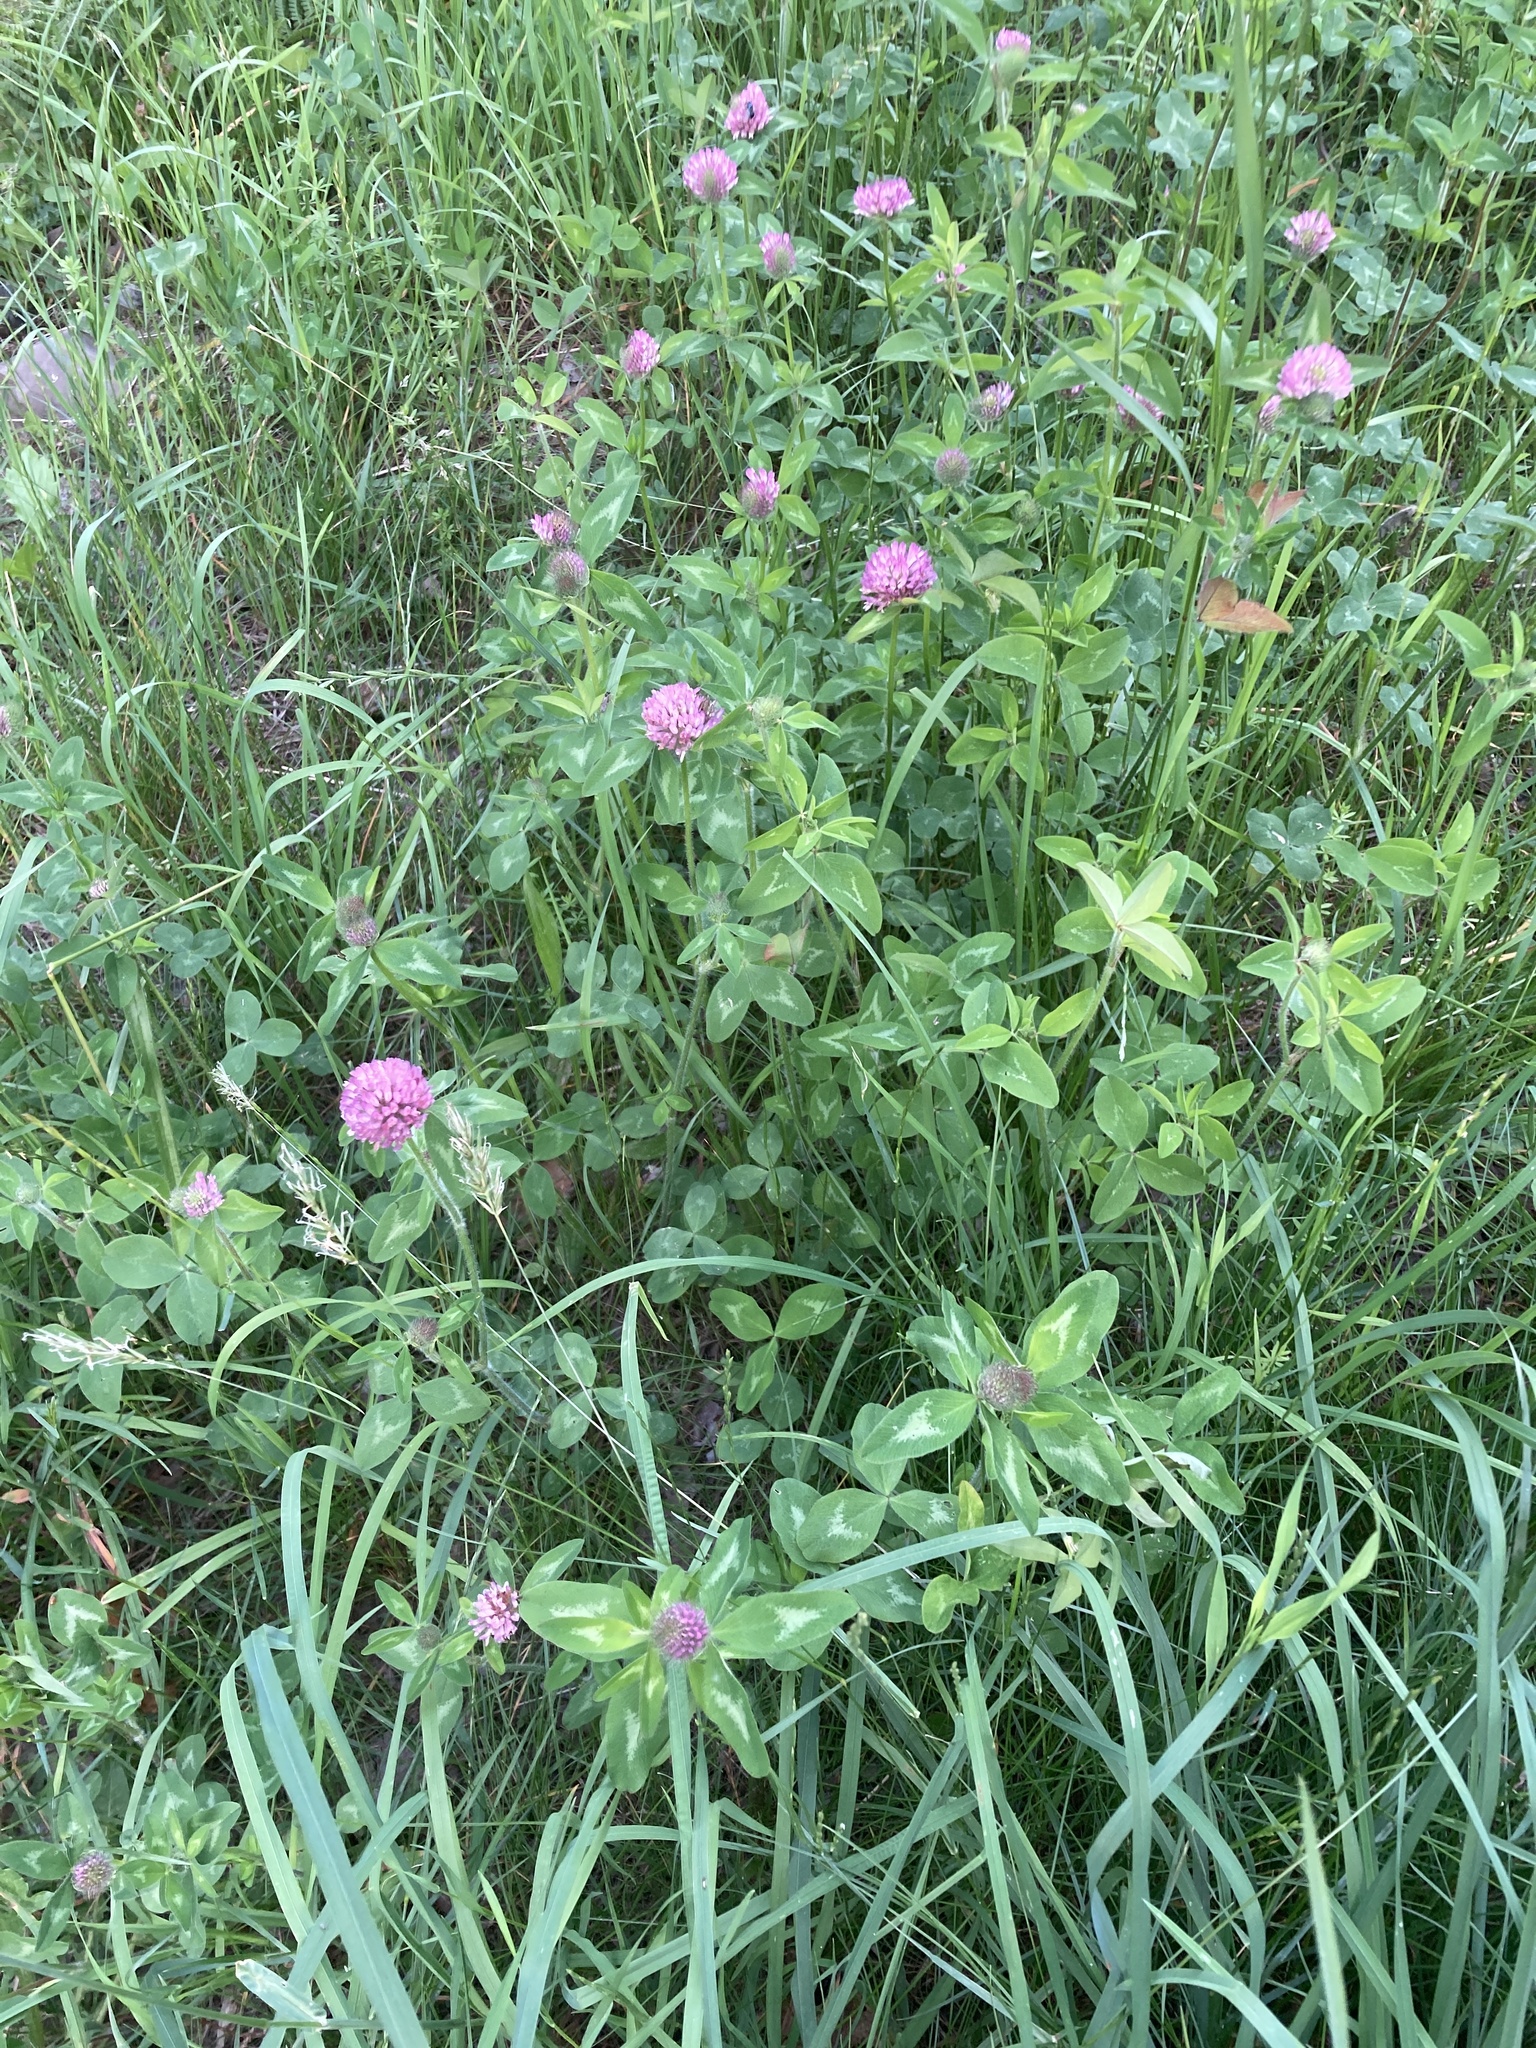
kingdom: Plantae
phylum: Tracheophyta
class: Magnoliopsida
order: Fabales
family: Fabaceae
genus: Trifolium
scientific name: Trifolium pratense
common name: Red clover
